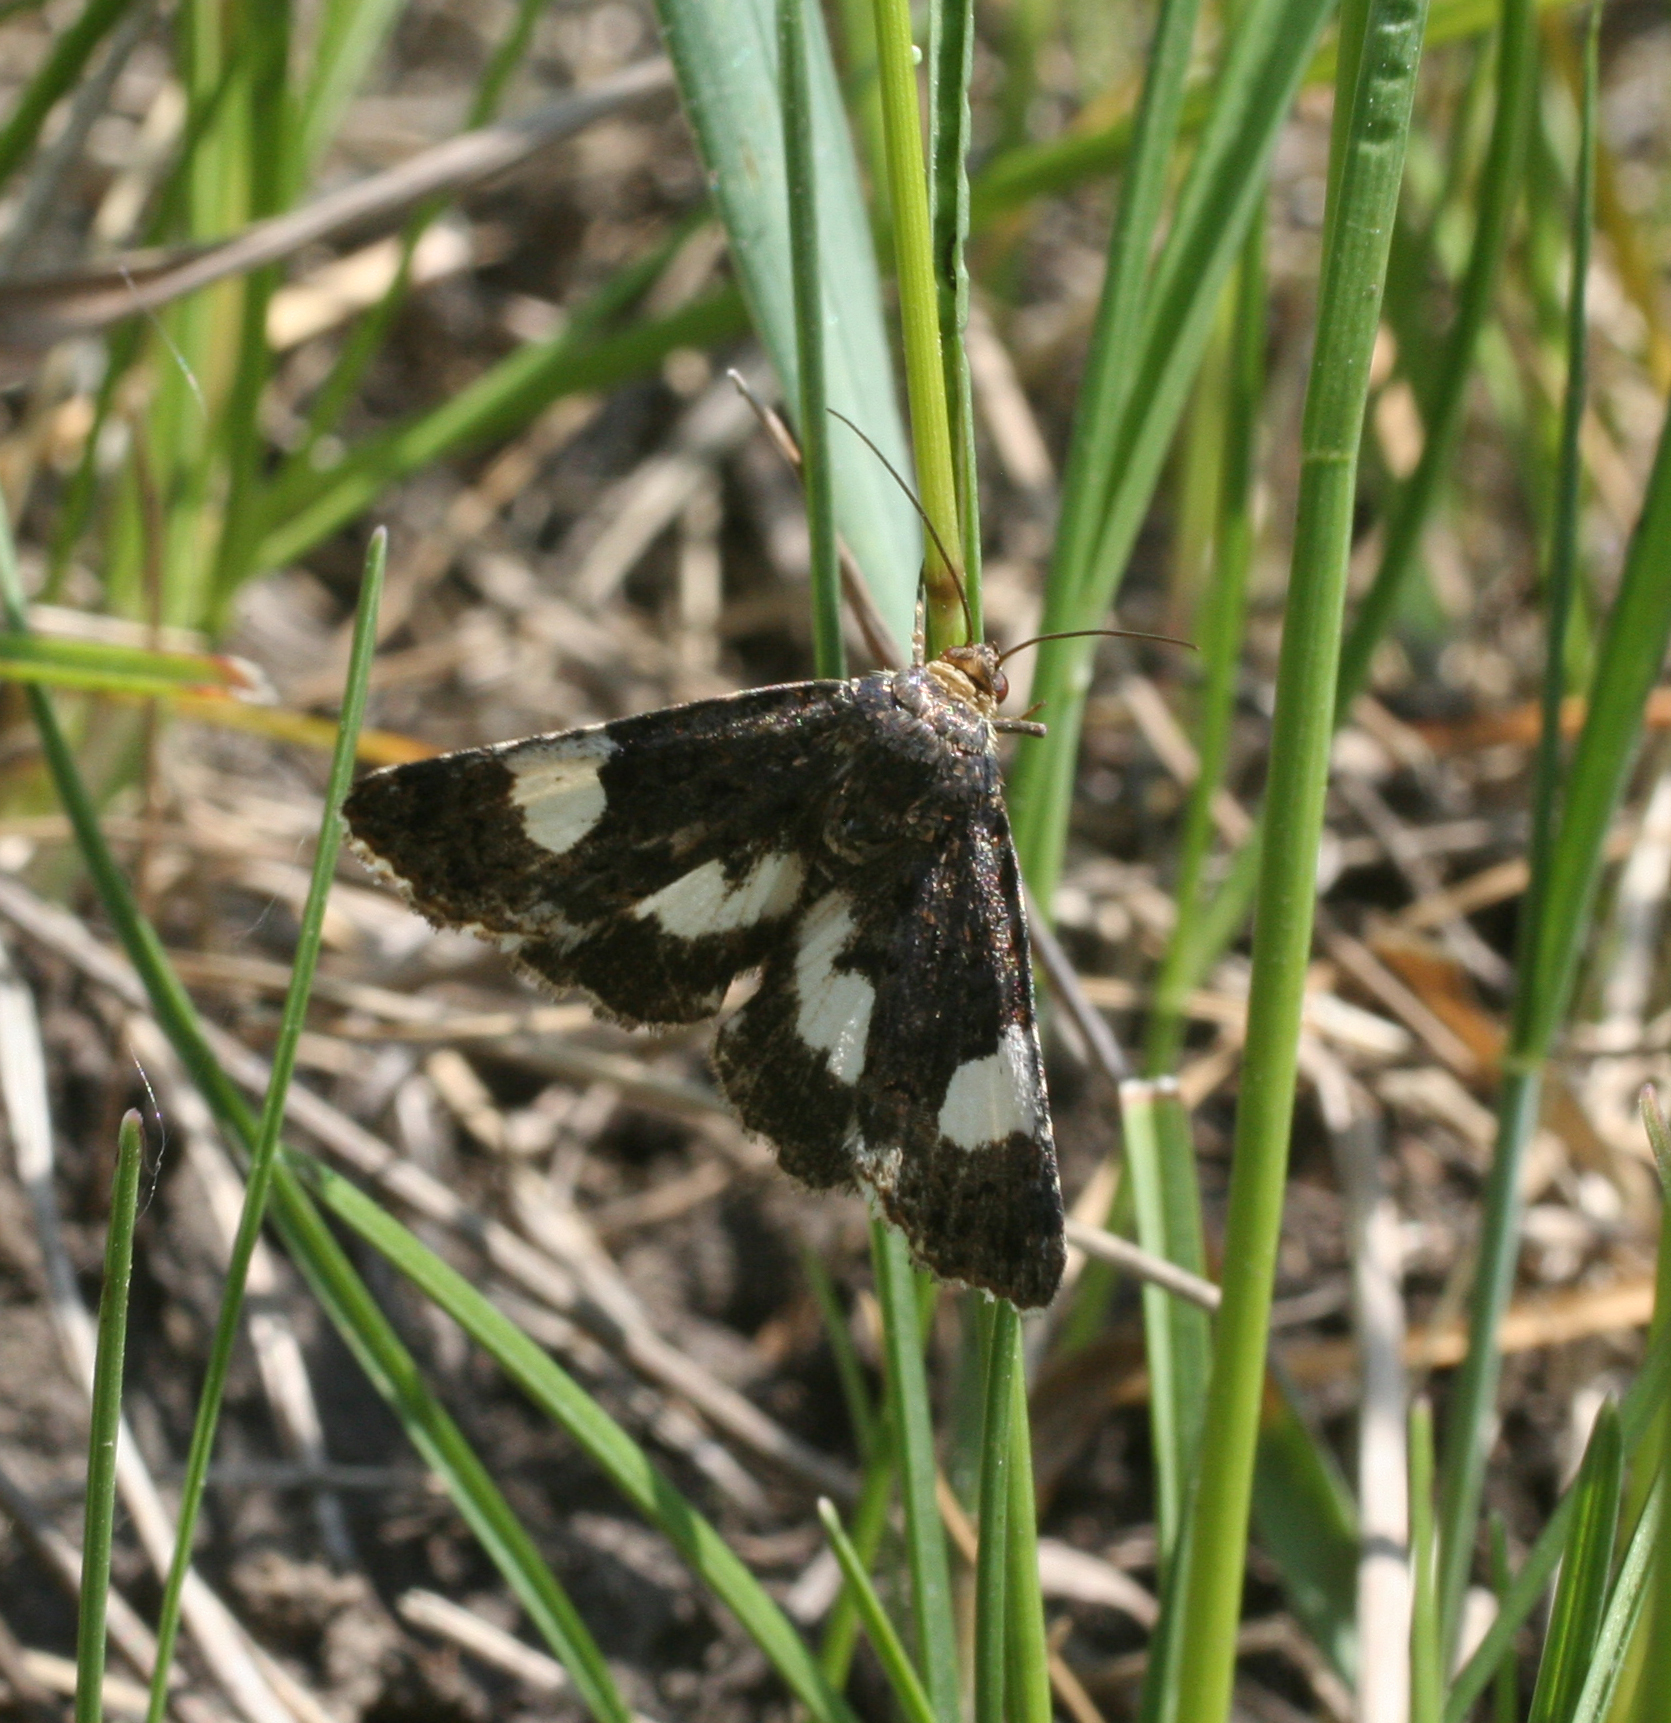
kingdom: Animalia
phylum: Arthropoda
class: Insecta
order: Lepidoptera
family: Erebidae
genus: Tyta
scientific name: Tyta luctuosa
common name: Four-spotted
